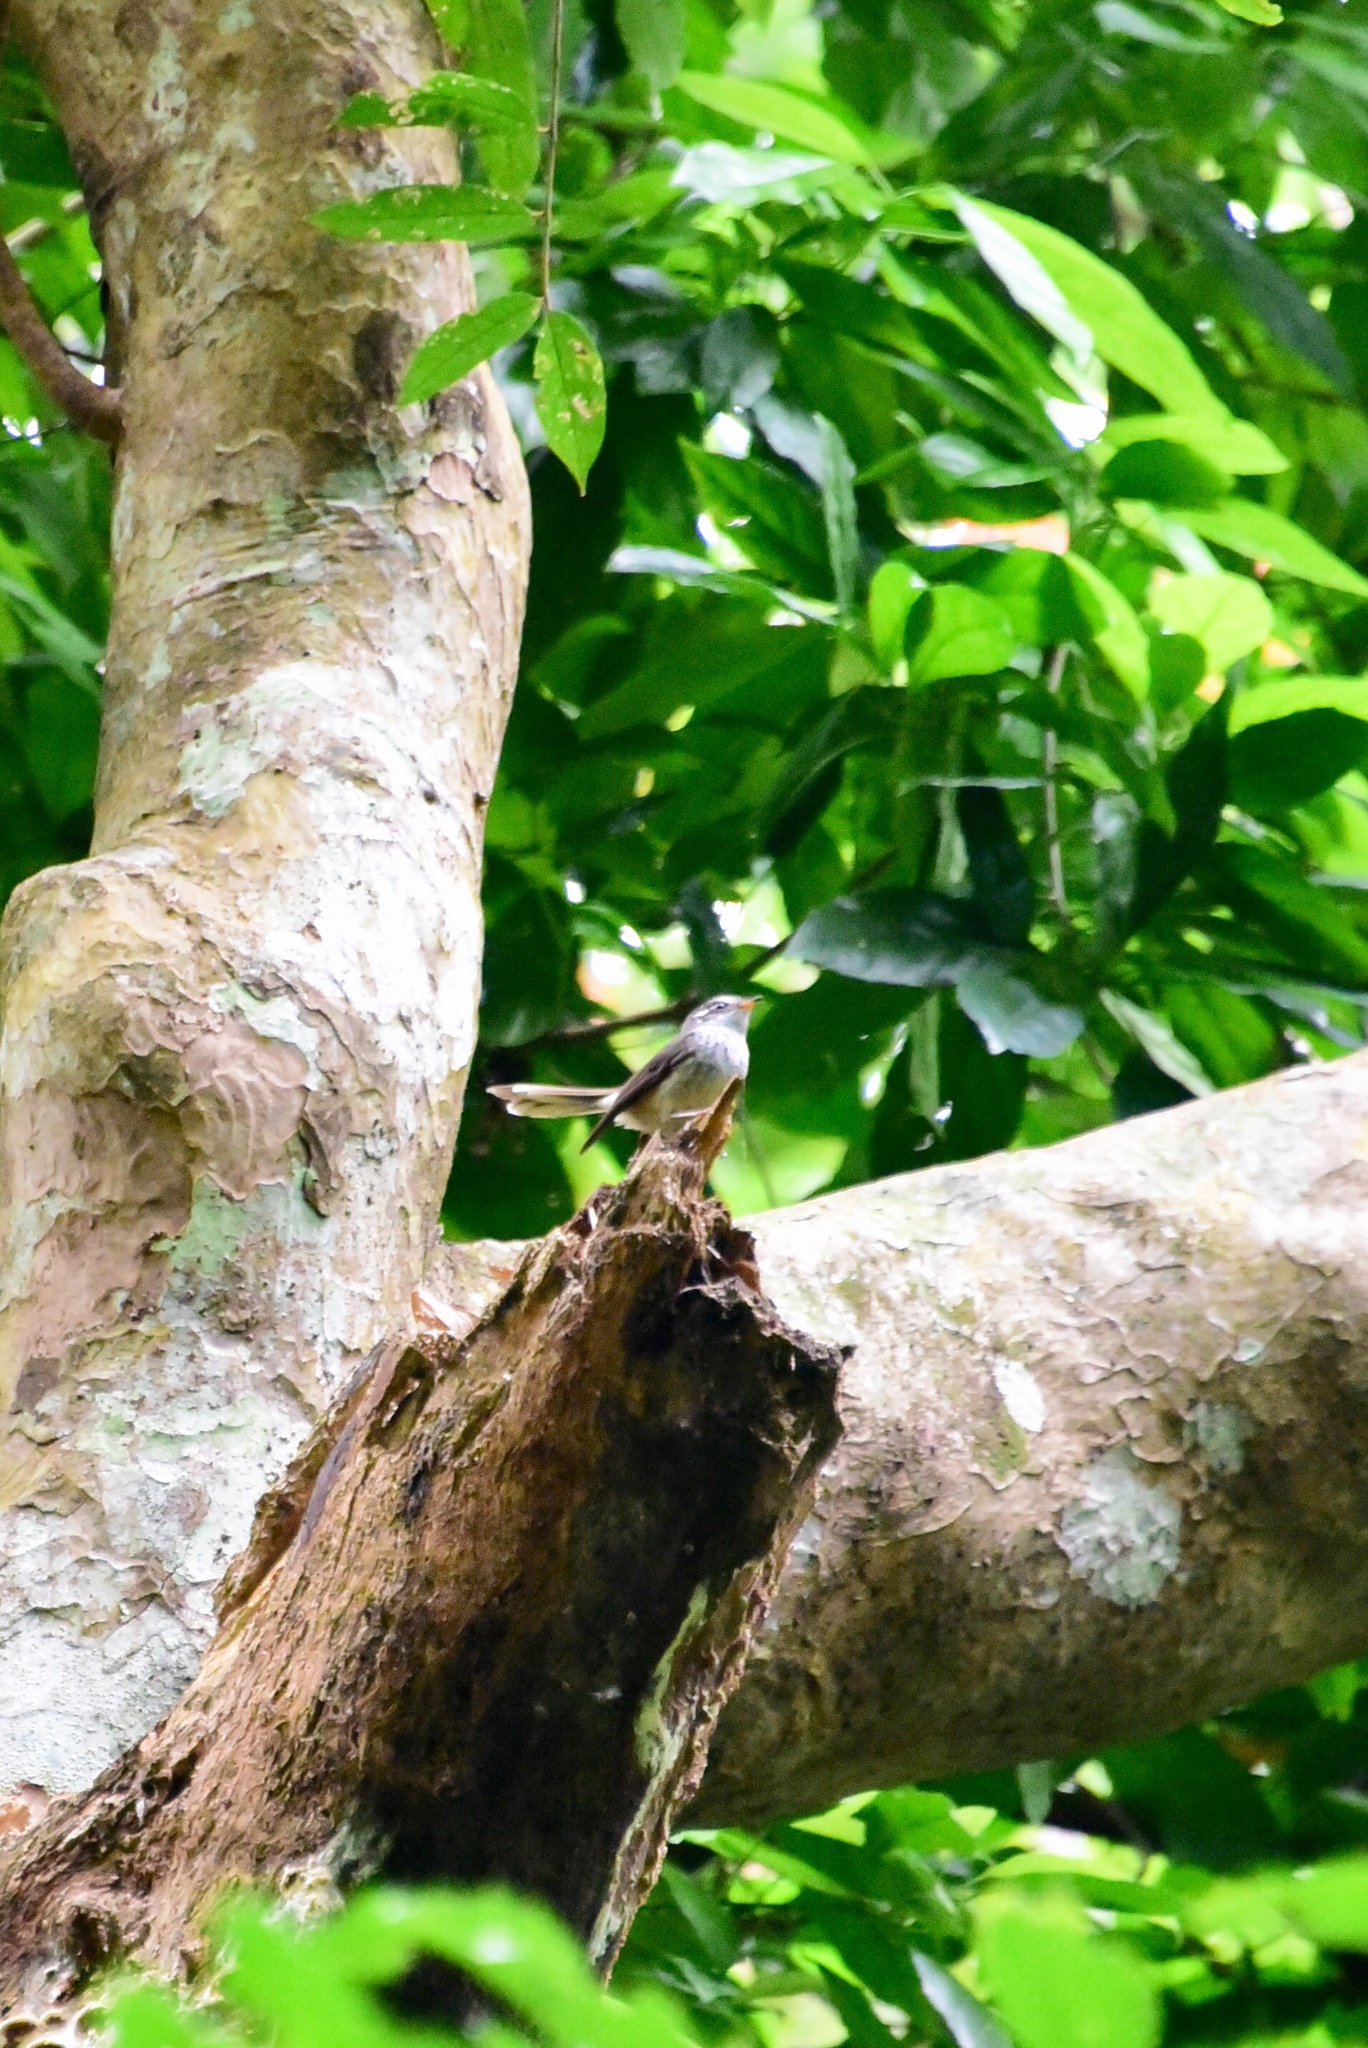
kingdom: Animalia
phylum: Chordata
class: Aves
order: Passeriformes
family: Rhipiduridae
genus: Rhipidura
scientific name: Rhipidura verreauxi
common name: Streaked fantail
